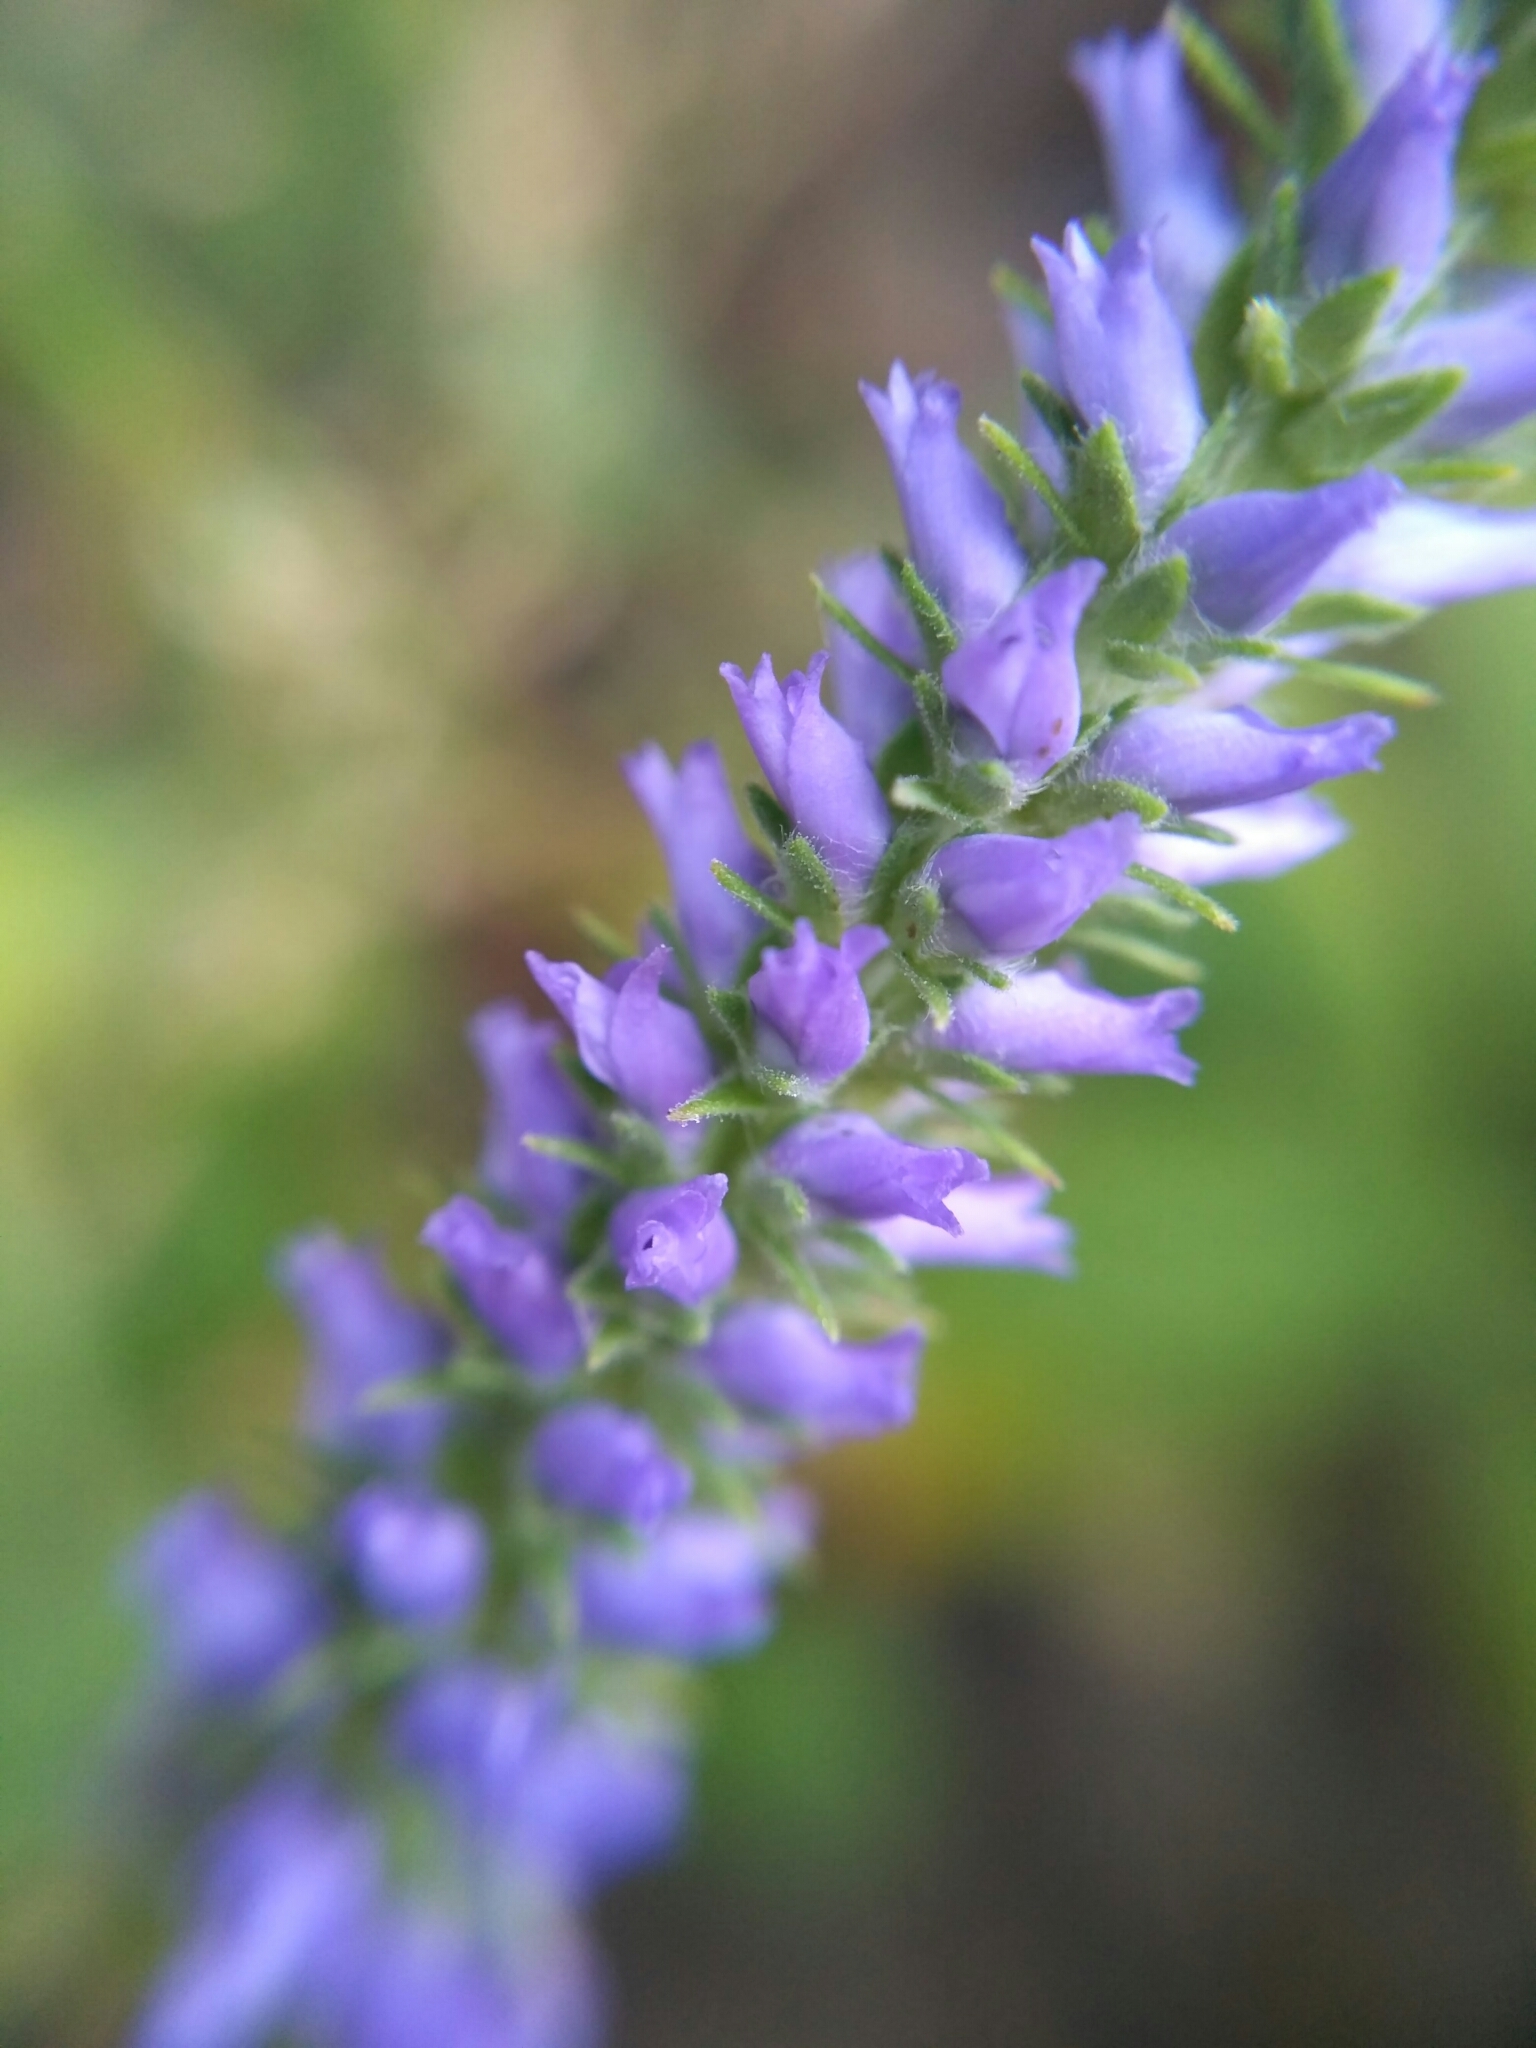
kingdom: Plantae
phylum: Tracheophyta
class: Magnoliopsida
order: Lamiales
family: Plantaginaceae
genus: Veronica
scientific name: Veronica spicata
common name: Spiked speedwell
